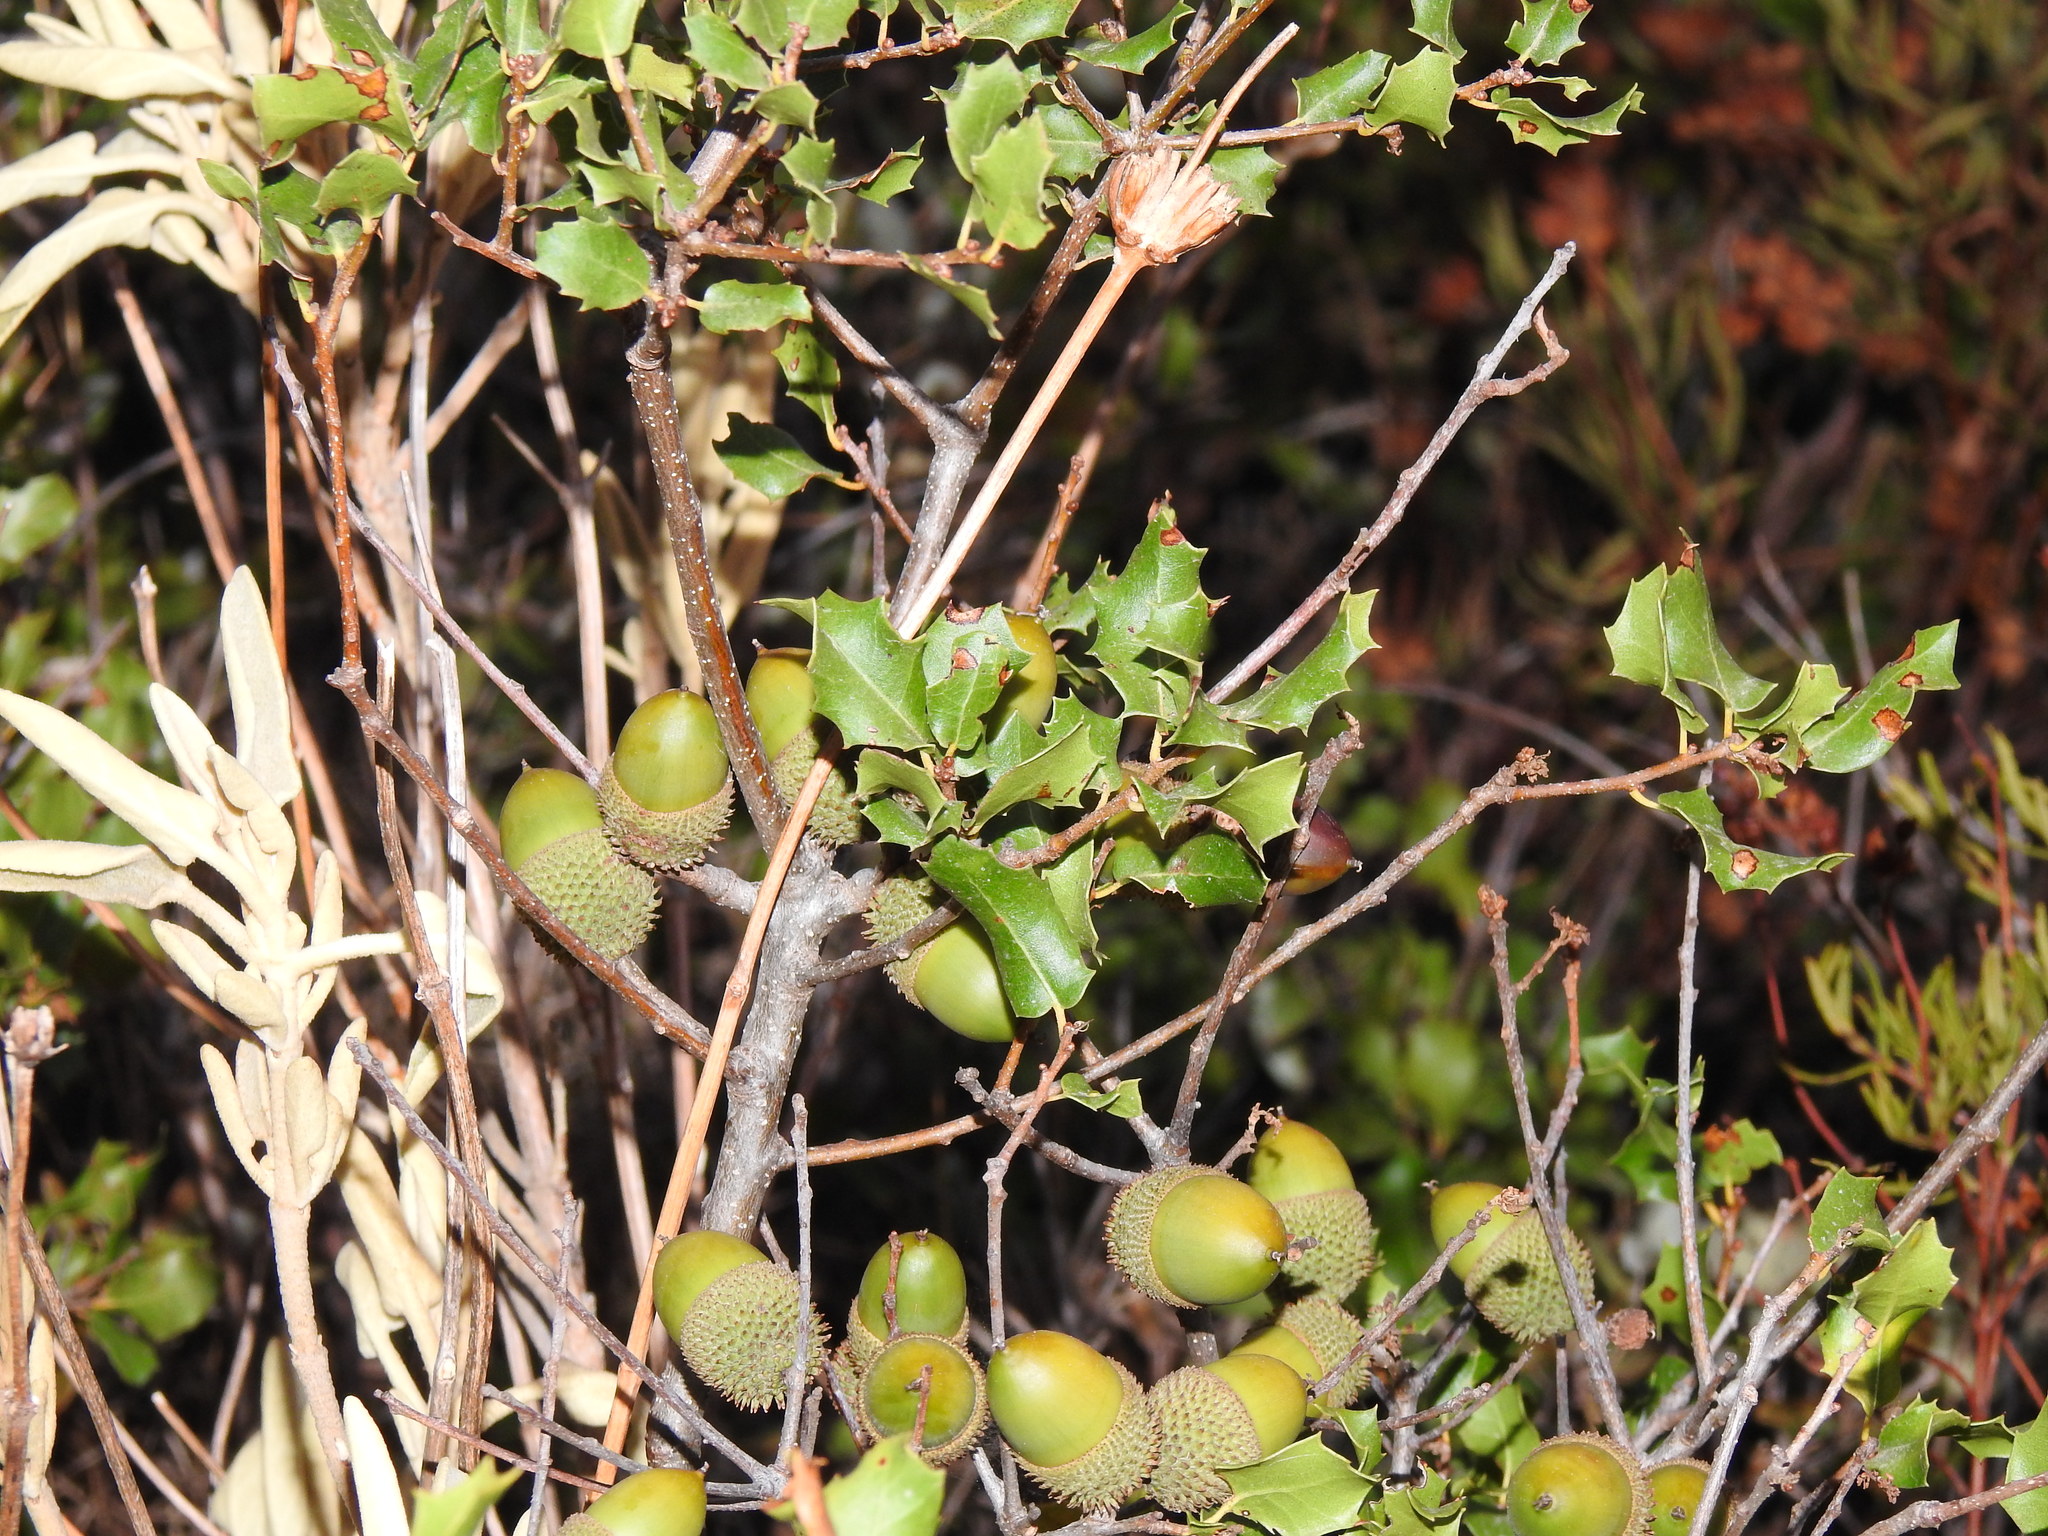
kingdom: Plantae
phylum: Tracheophyta
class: Magnoliopsida
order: Fagales
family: Fagaceae
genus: Quercus
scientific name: Quercus coccifera
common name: Kermes oak
